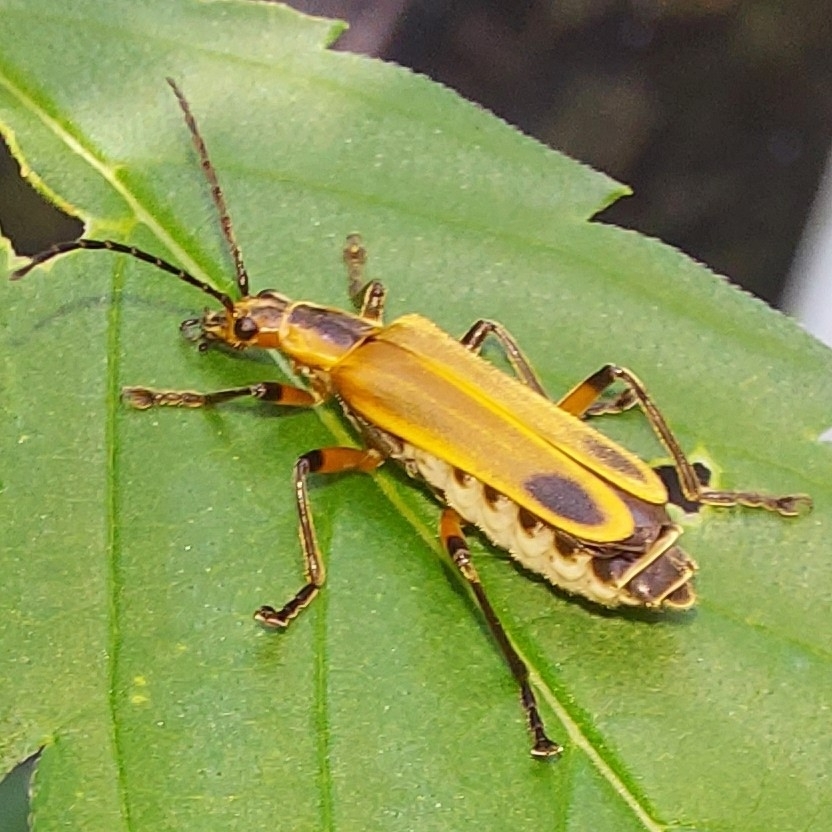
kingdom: Animalia
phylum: Arthropoda
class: Insecta
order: Coleoptera
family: Cantharidae
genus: Chauliognathus
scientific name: Chauliognathus marginatus
